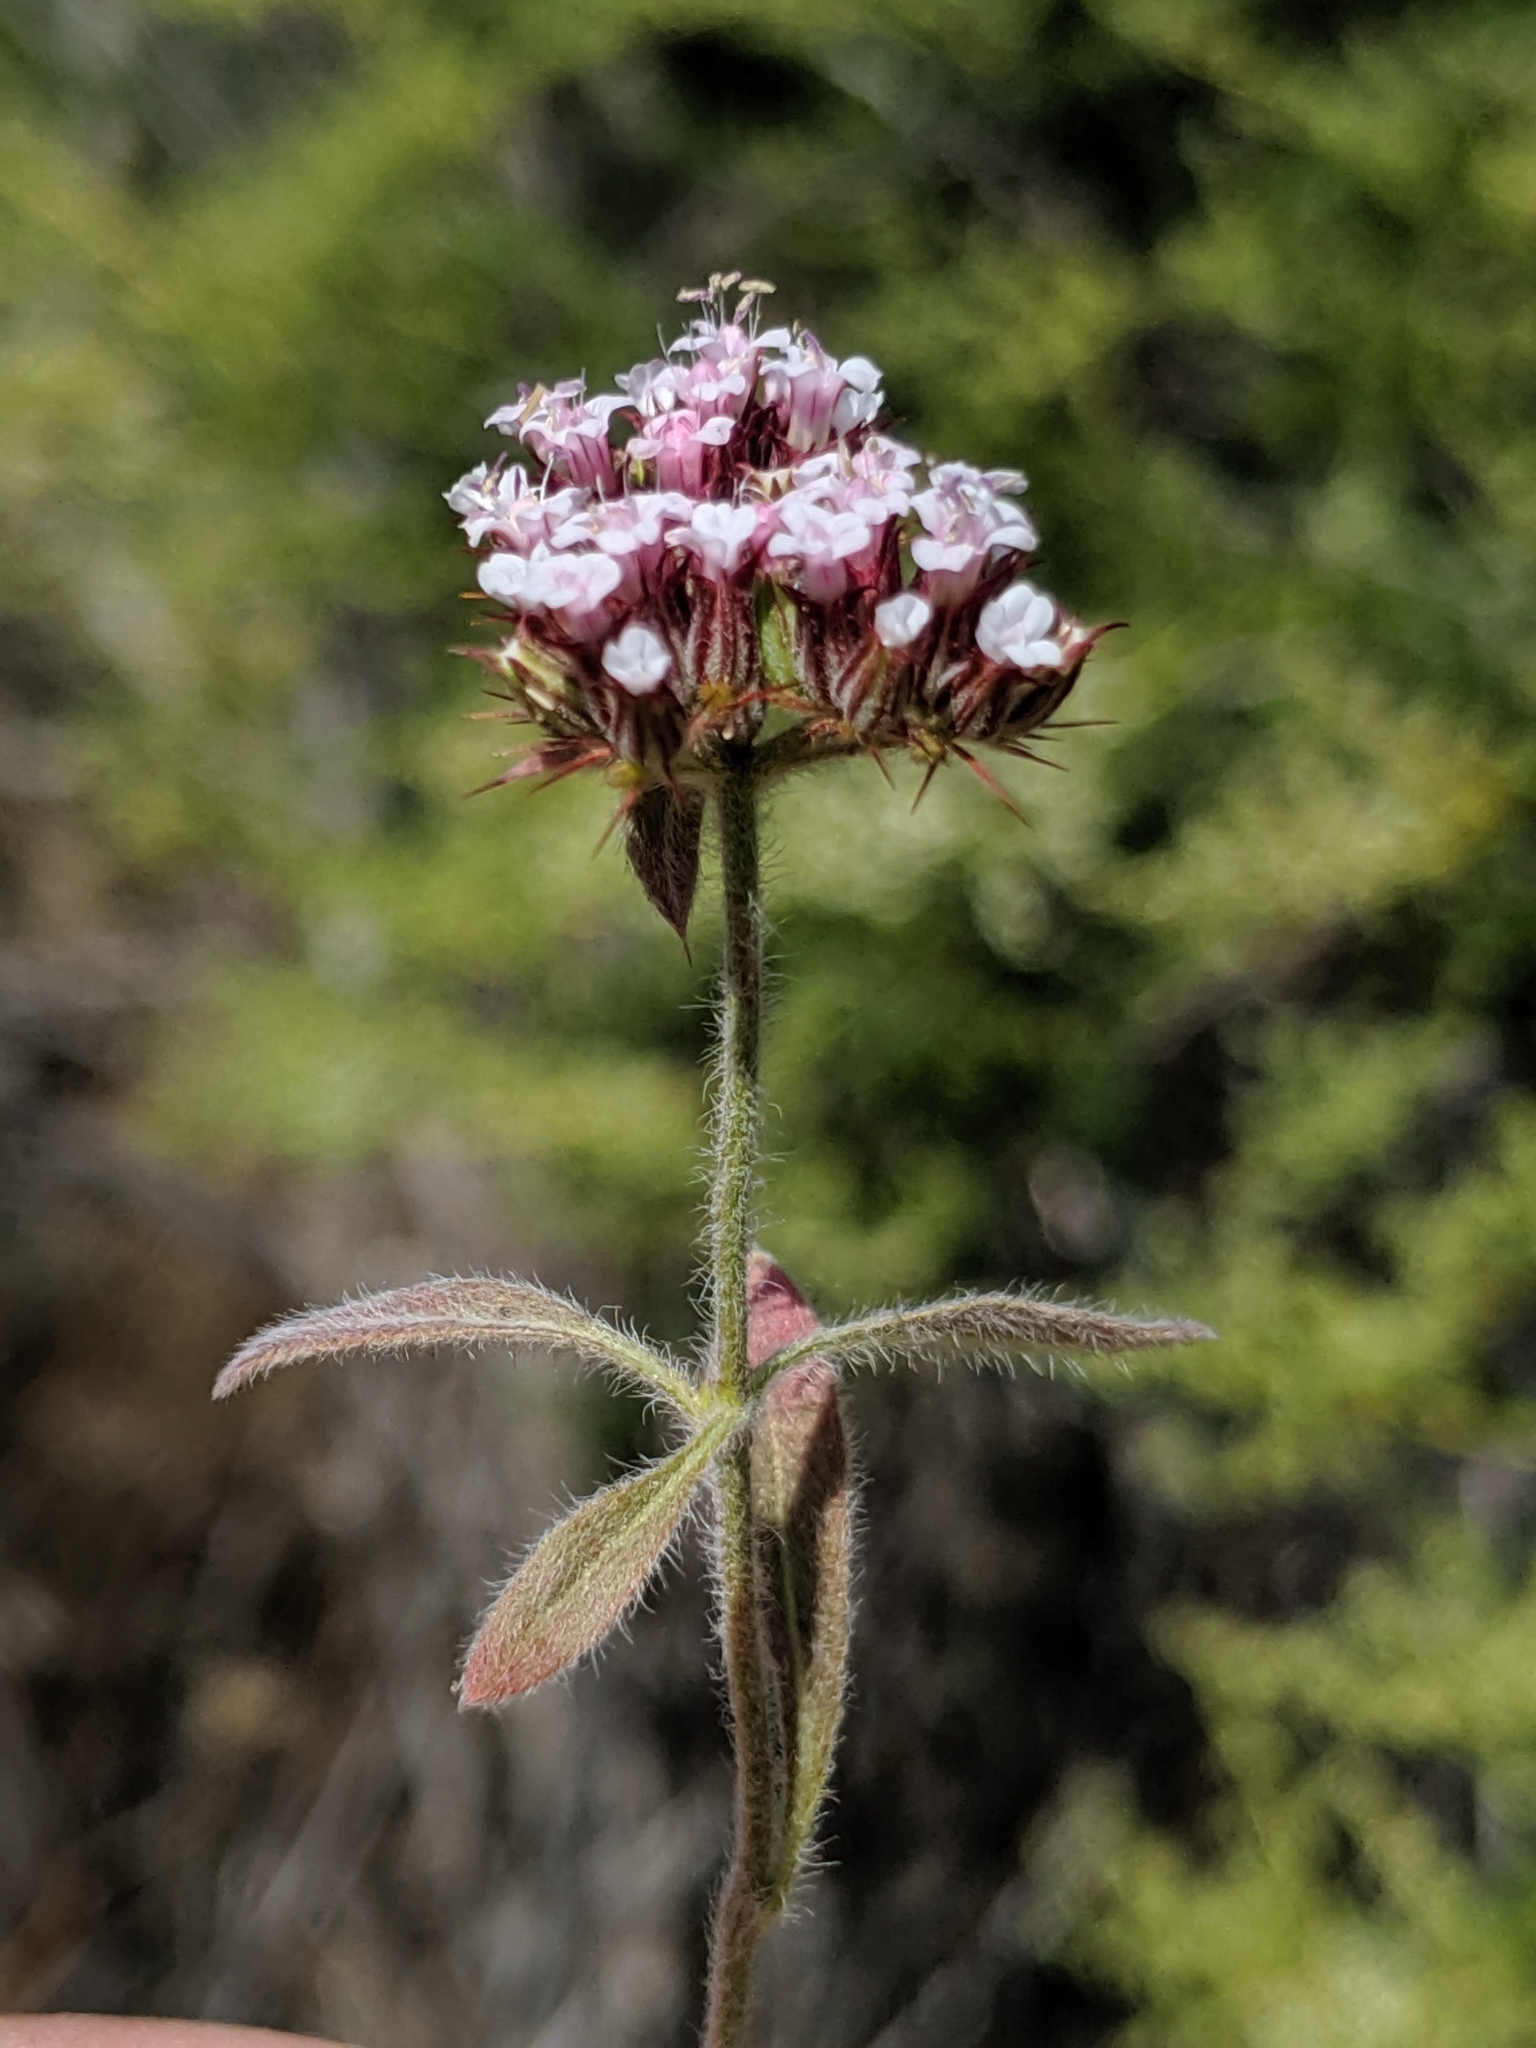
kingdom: Plantae
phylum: Tracheophyta
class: Magnoliopsida
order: Caryophyllales
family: Polygonaceae
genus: Chorizanthe
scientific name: Chorizanthe obovata
